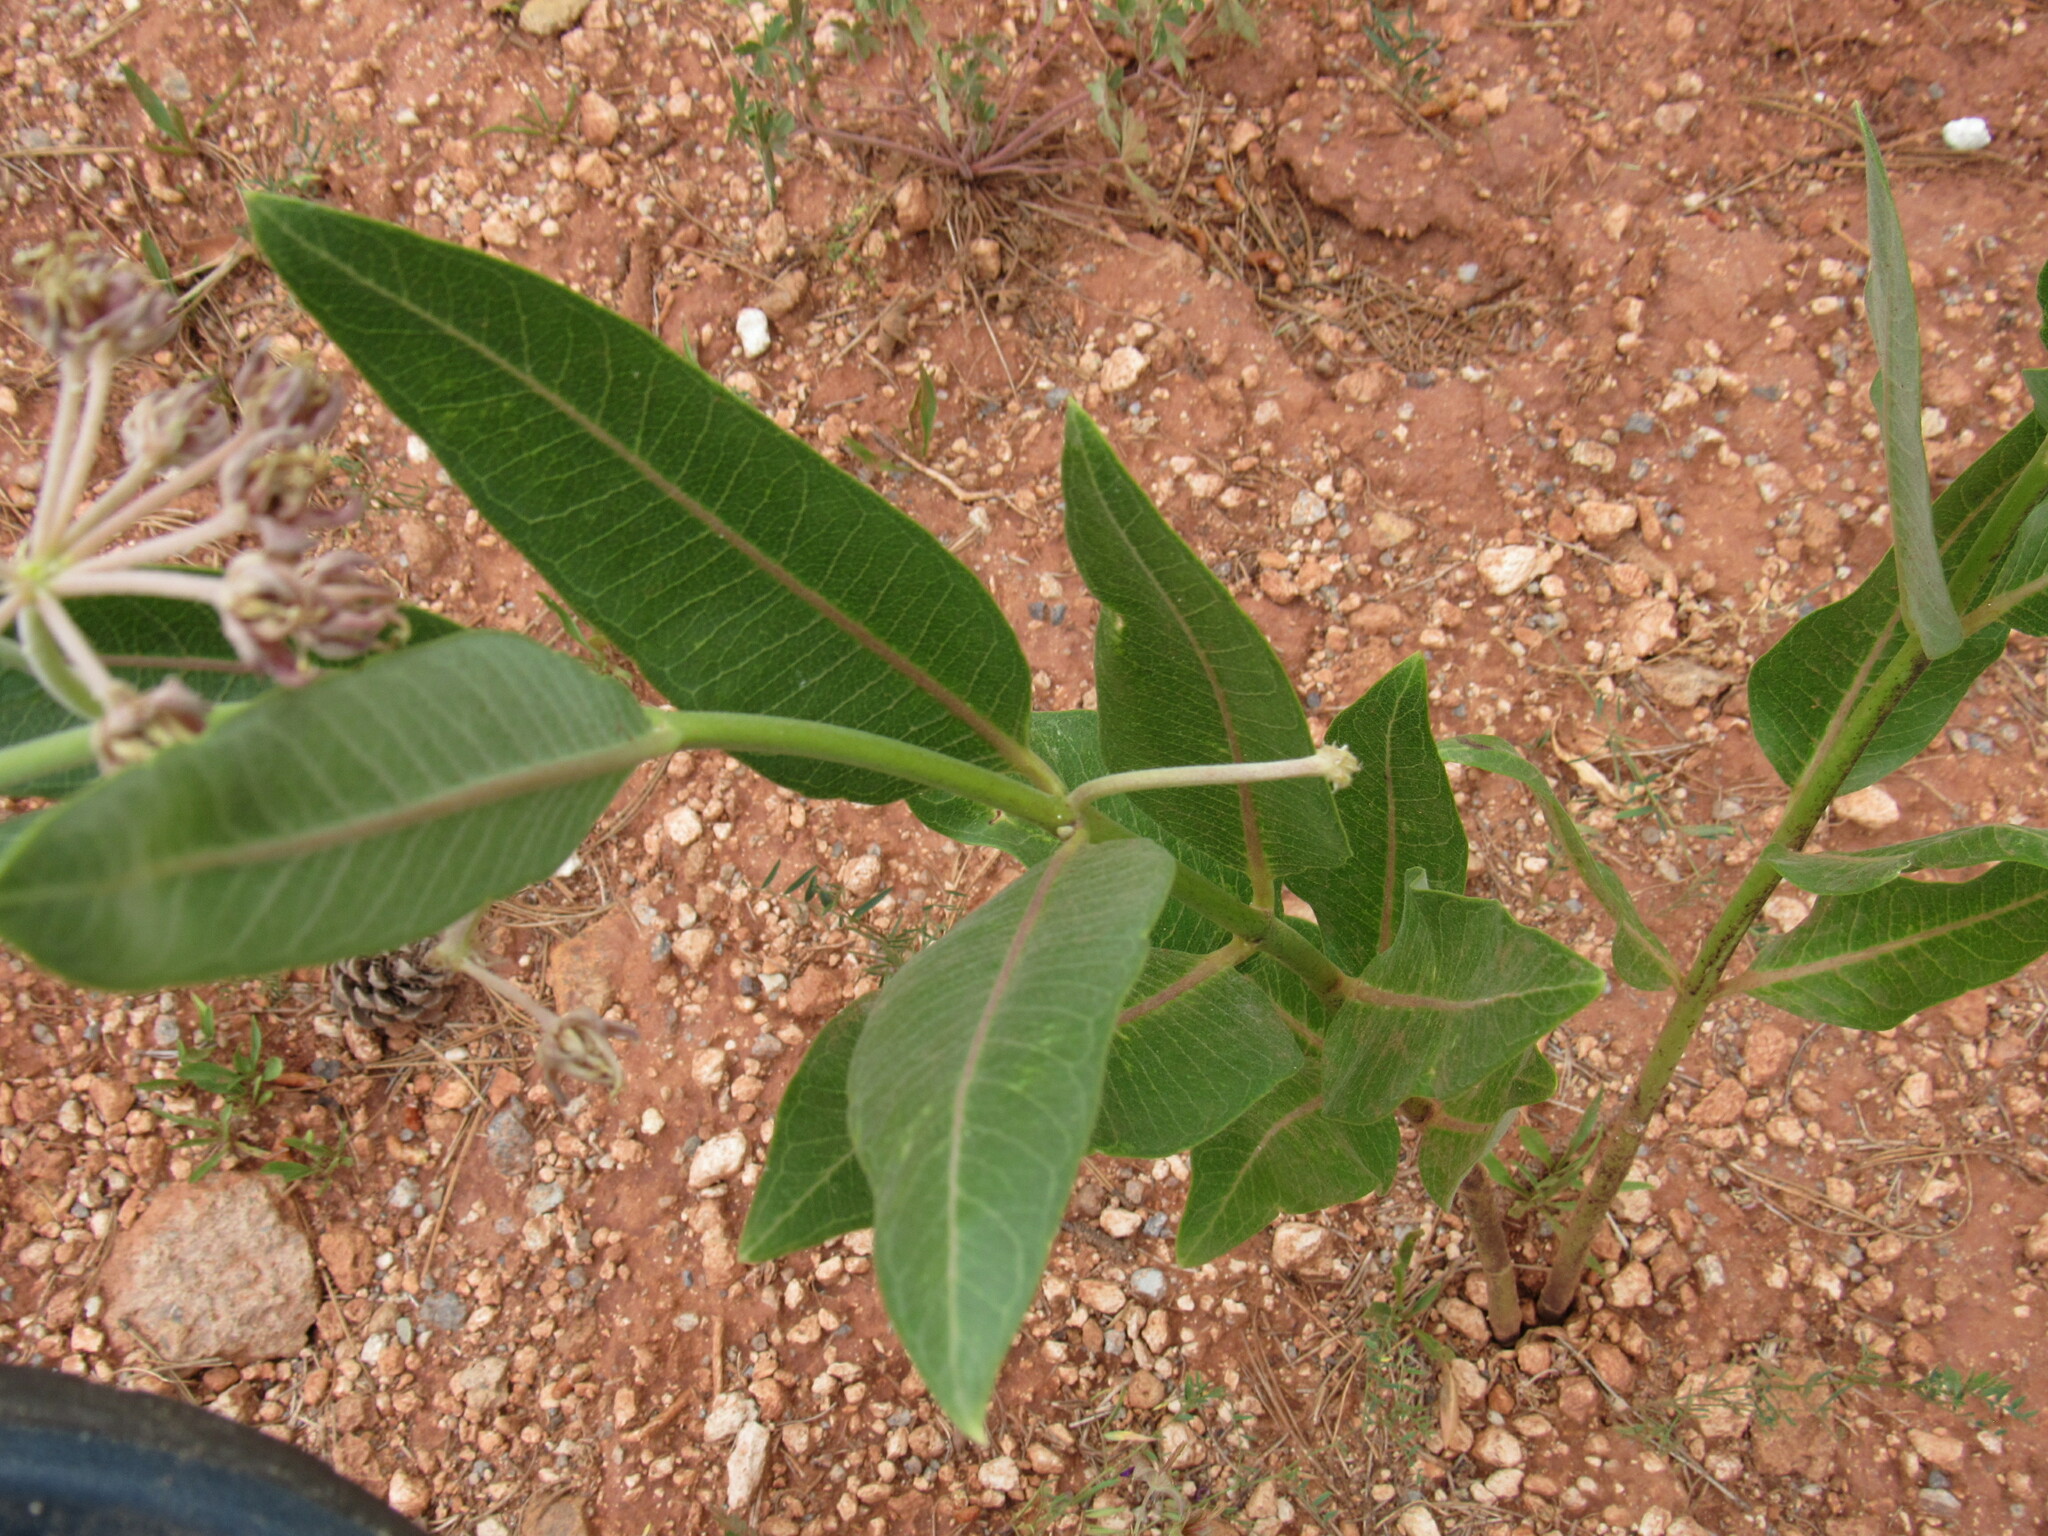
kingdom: Plantae
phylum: Tracheophyta
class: Magnoliopsida
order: Gentianales
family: Apocynaceae
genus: Asclepias
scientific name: Asclepias speciosa
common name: Showy milkweed
